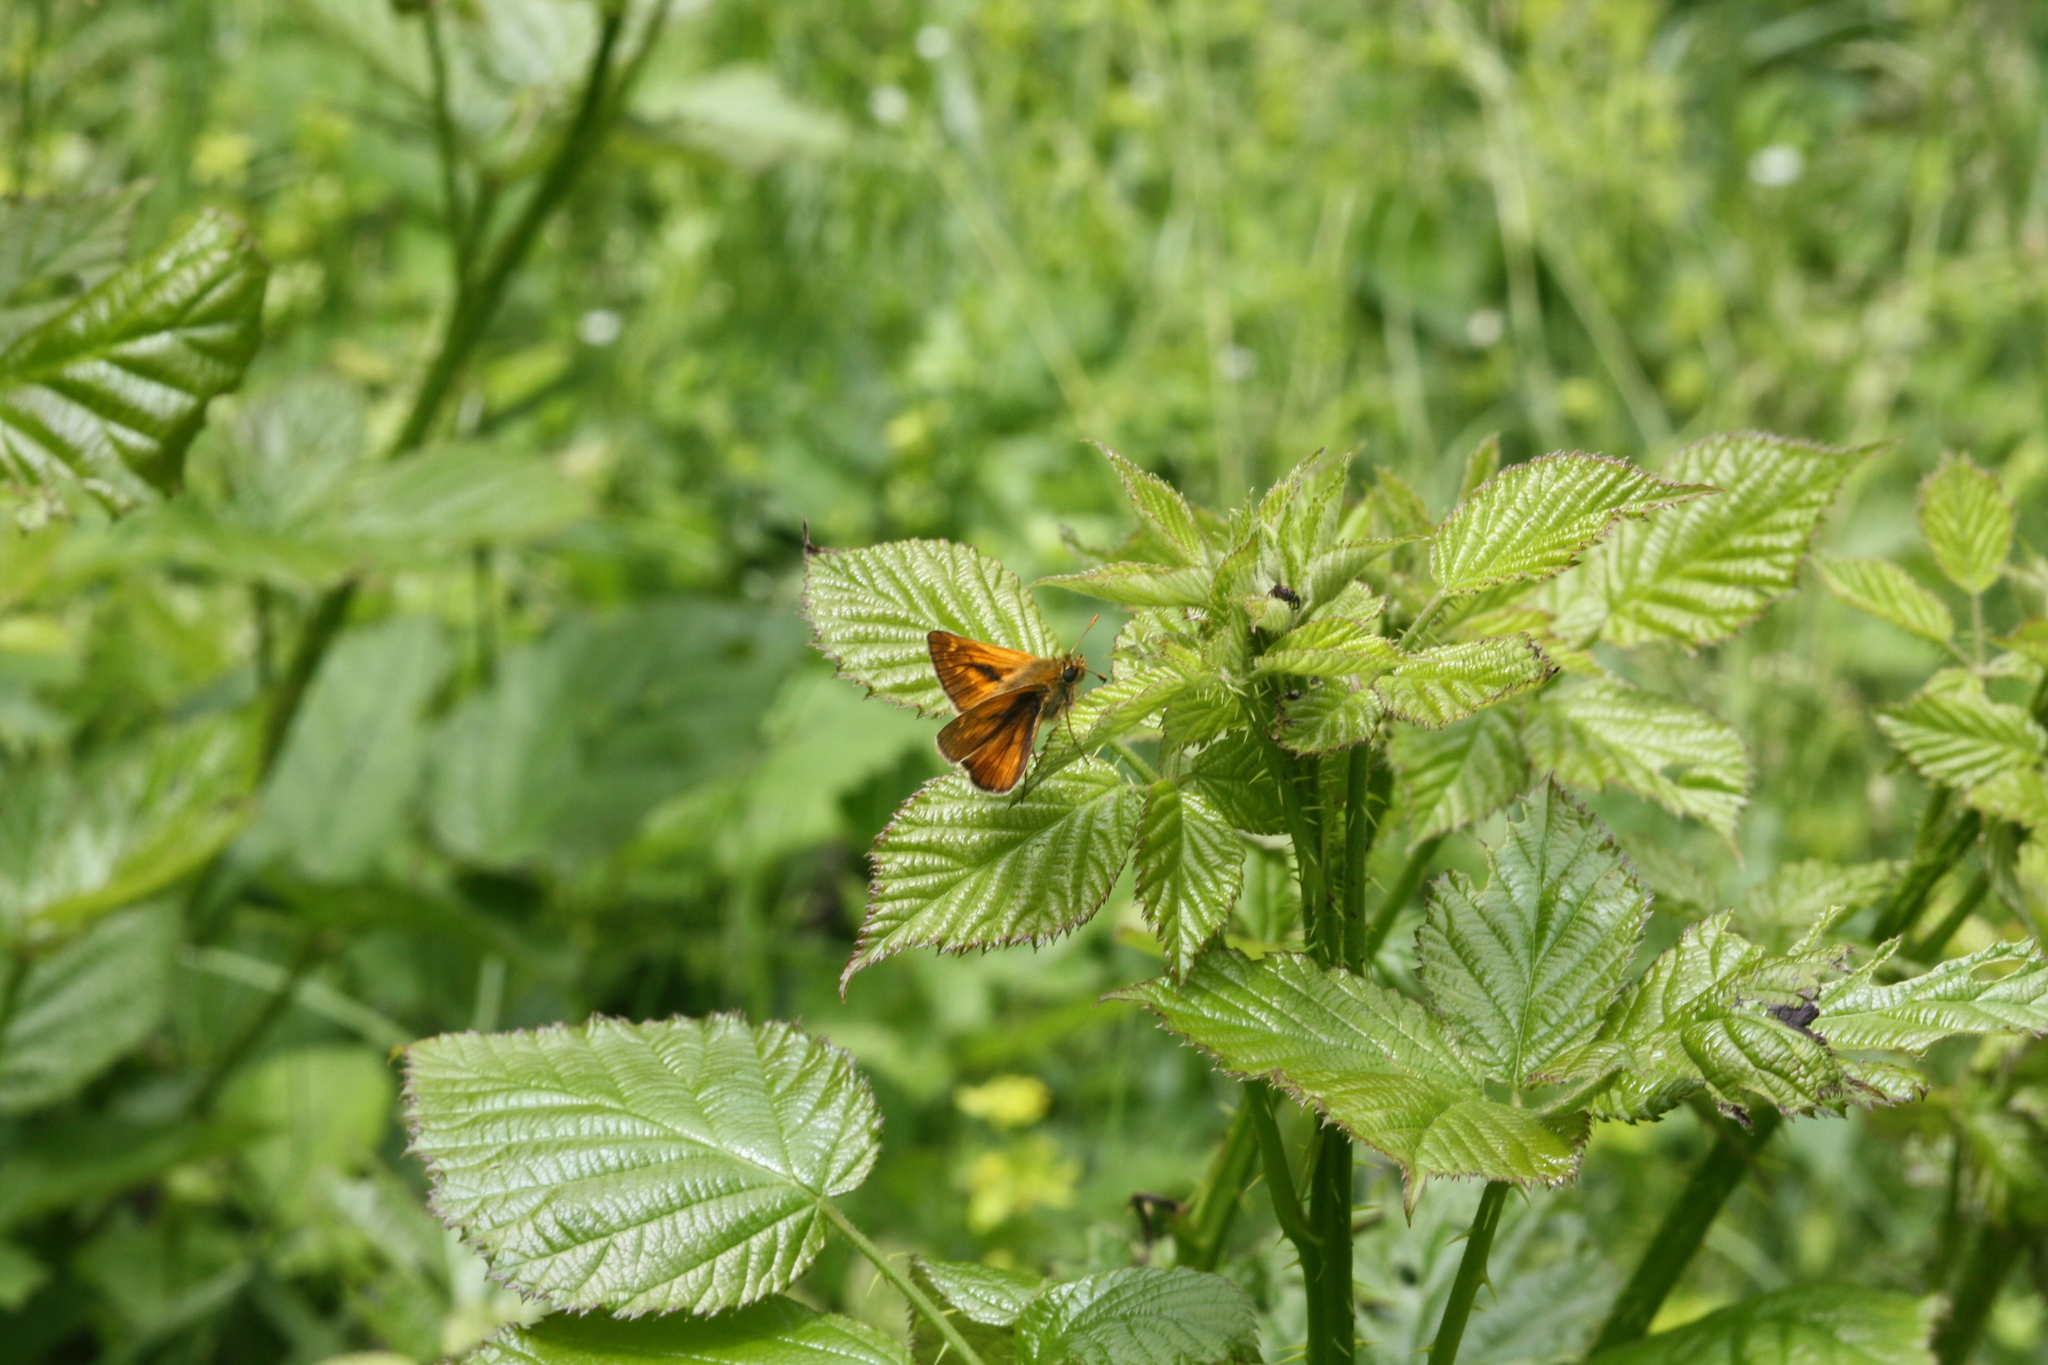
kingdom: Animalia
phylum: Arthropoda
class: Insecta
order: Lepidoptera
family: Hesperiidae
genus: Ochlodes
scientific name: Ochlodes venata
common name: Large skipper
